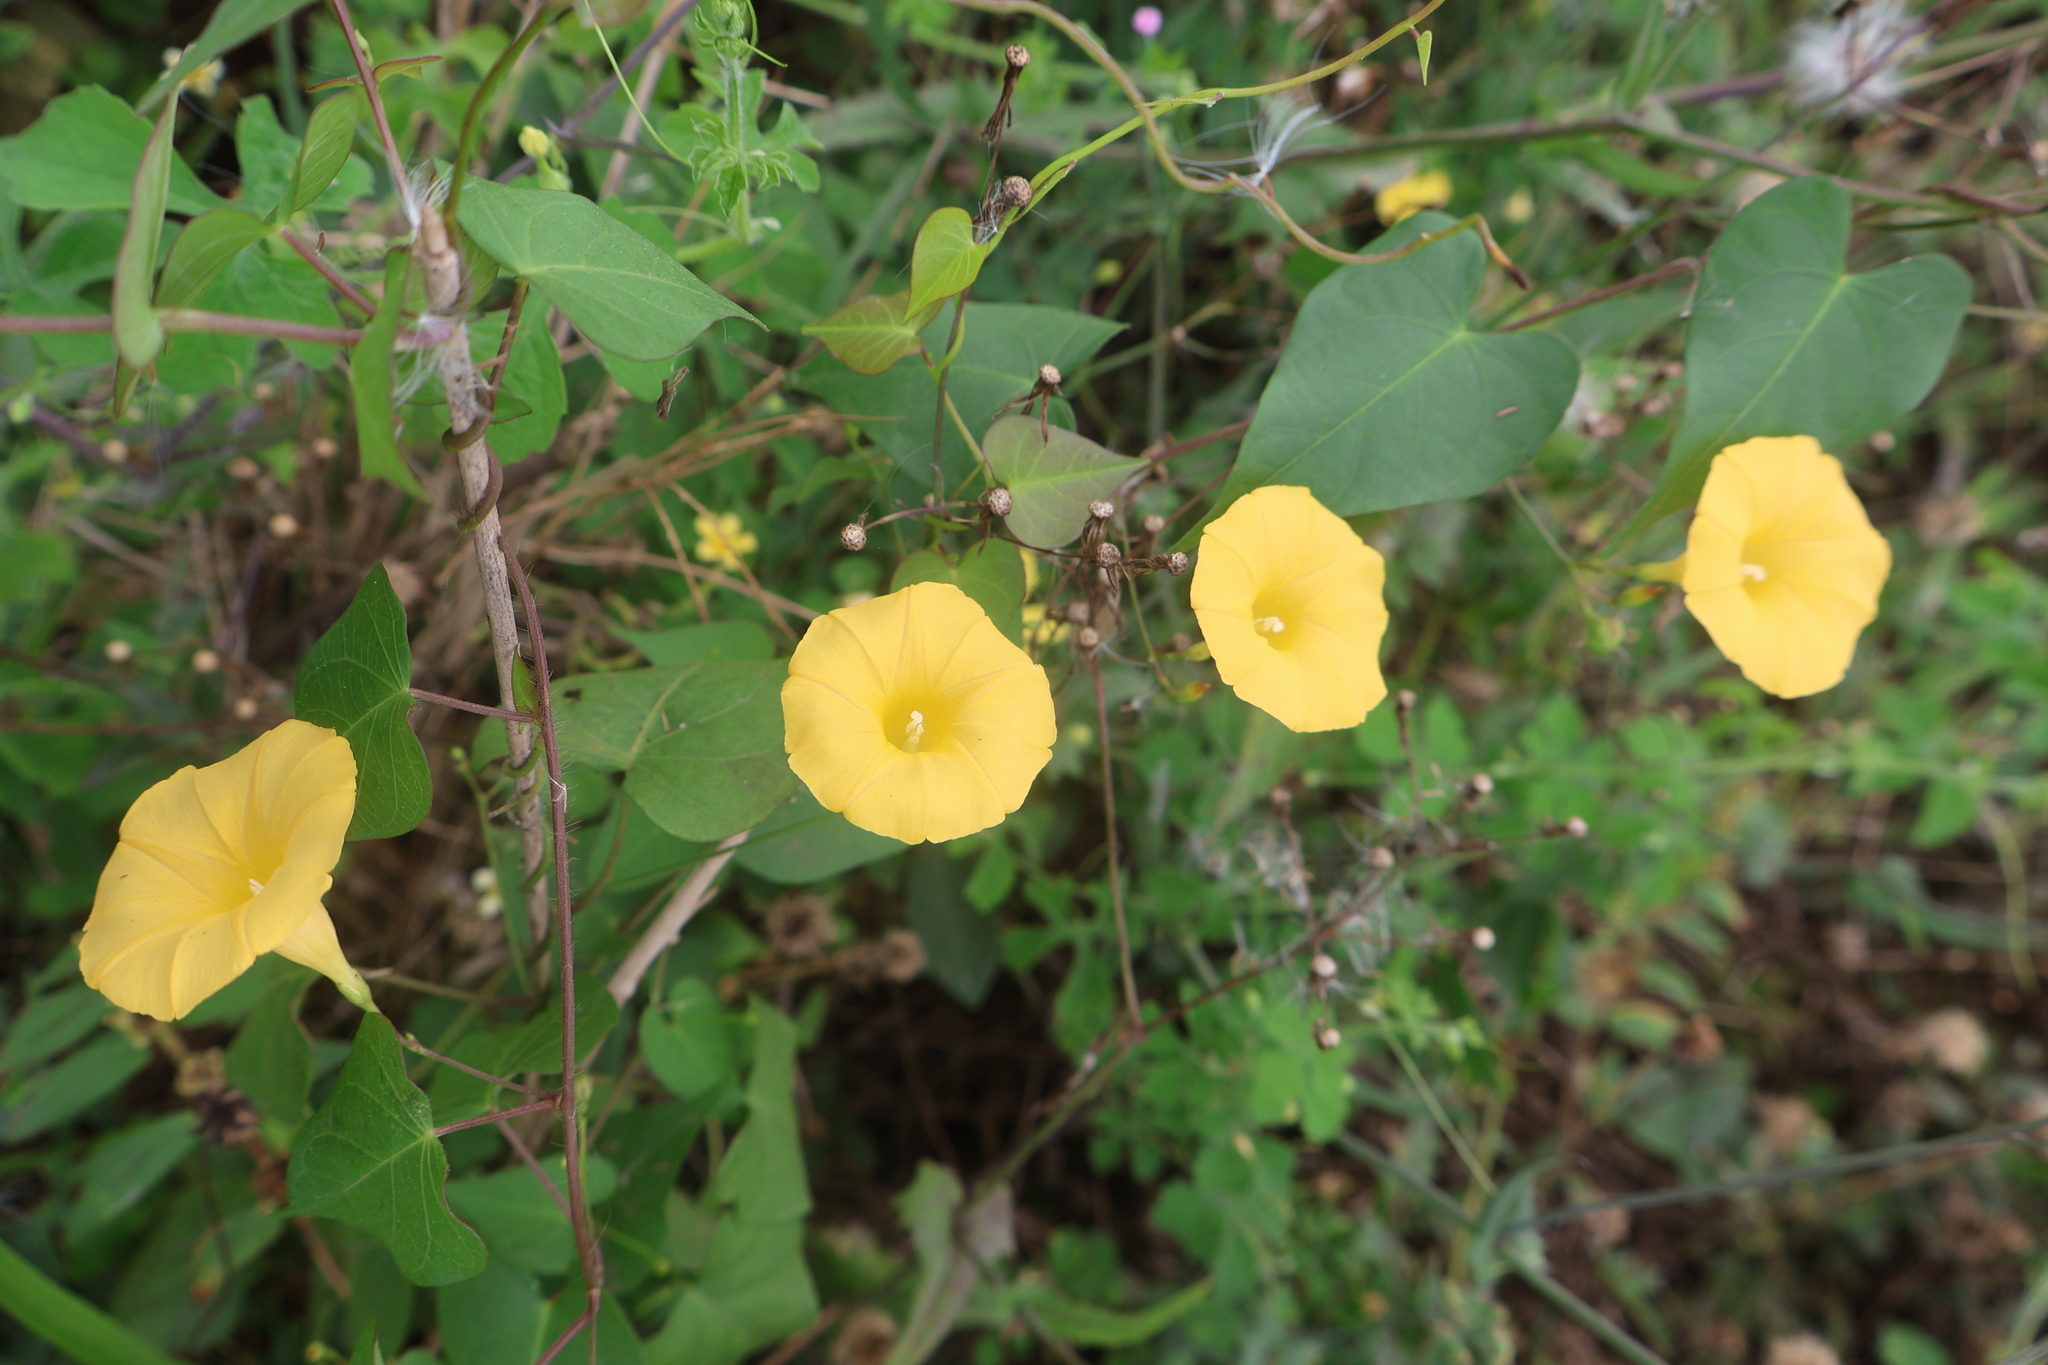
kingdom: Plantae
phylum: Tracheophyta
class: Magnoliopsida
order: Solanales
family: Convolvulaceae
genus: Ipomoea
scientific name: Ipomoea microsepala
